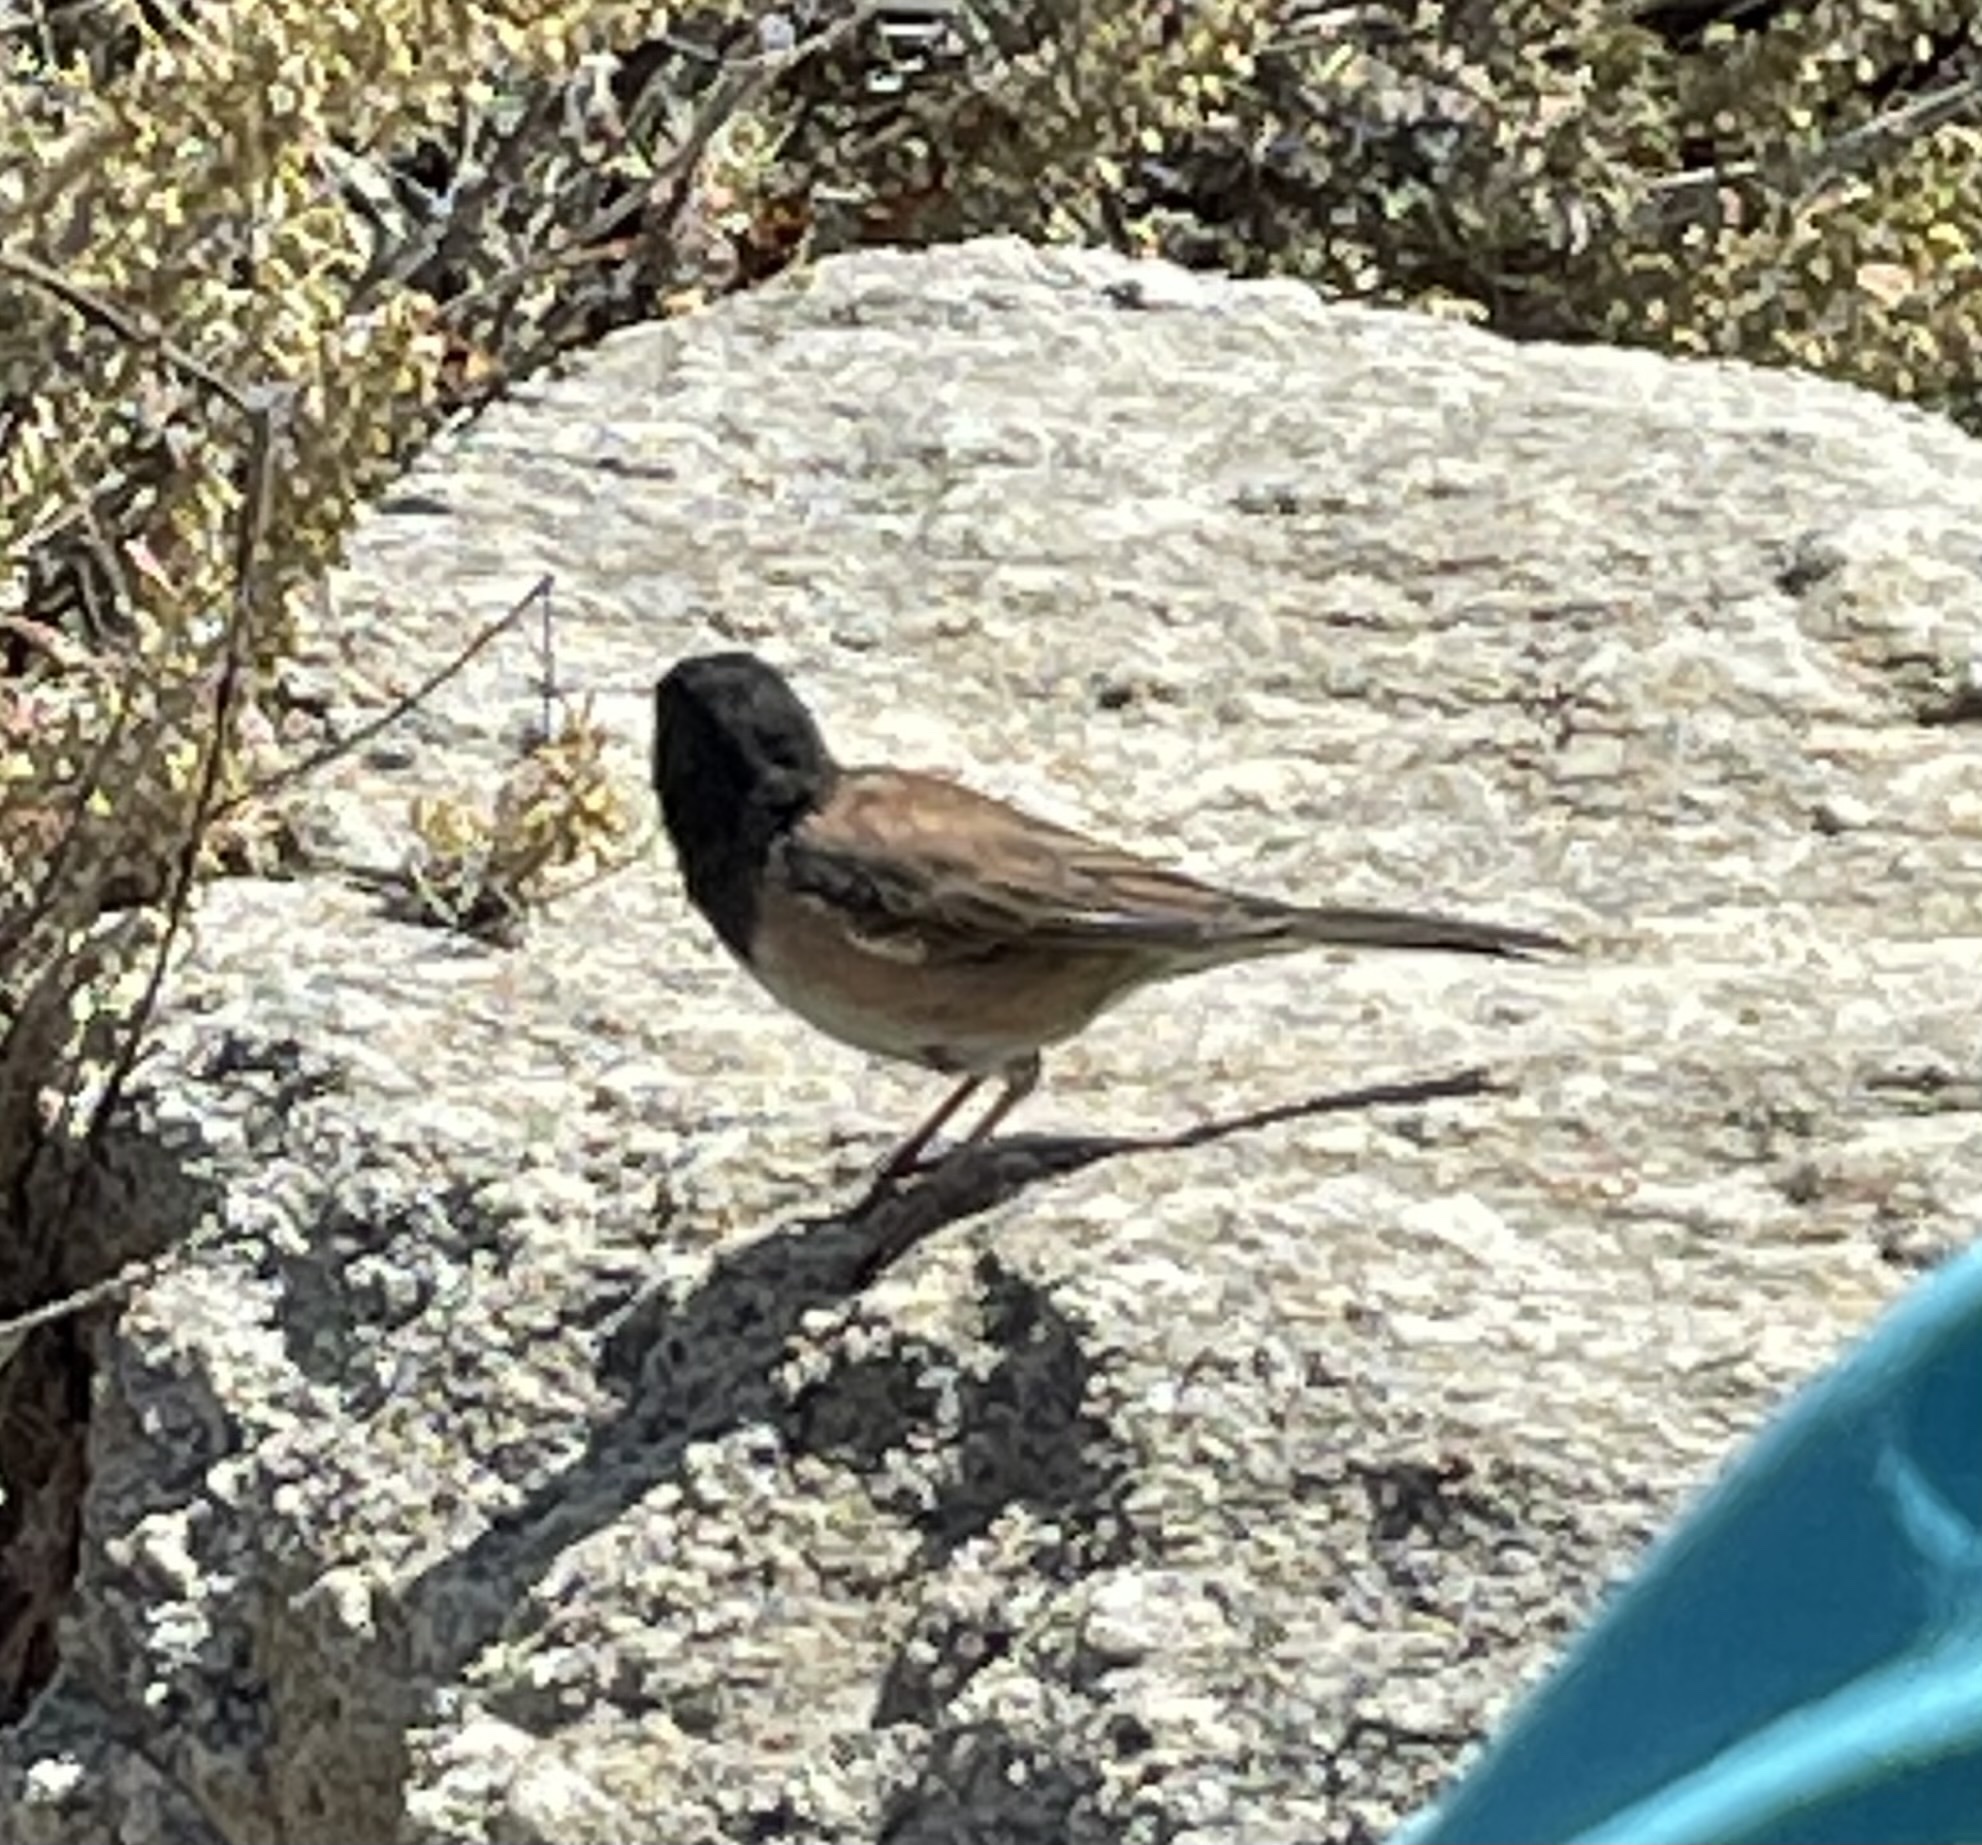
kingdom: Animalia
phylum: Chordata
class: Aves
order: Passeriformes
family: Passerellidae
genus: Junco
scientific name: Junco hyemalis
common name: Dark-eyed junco
